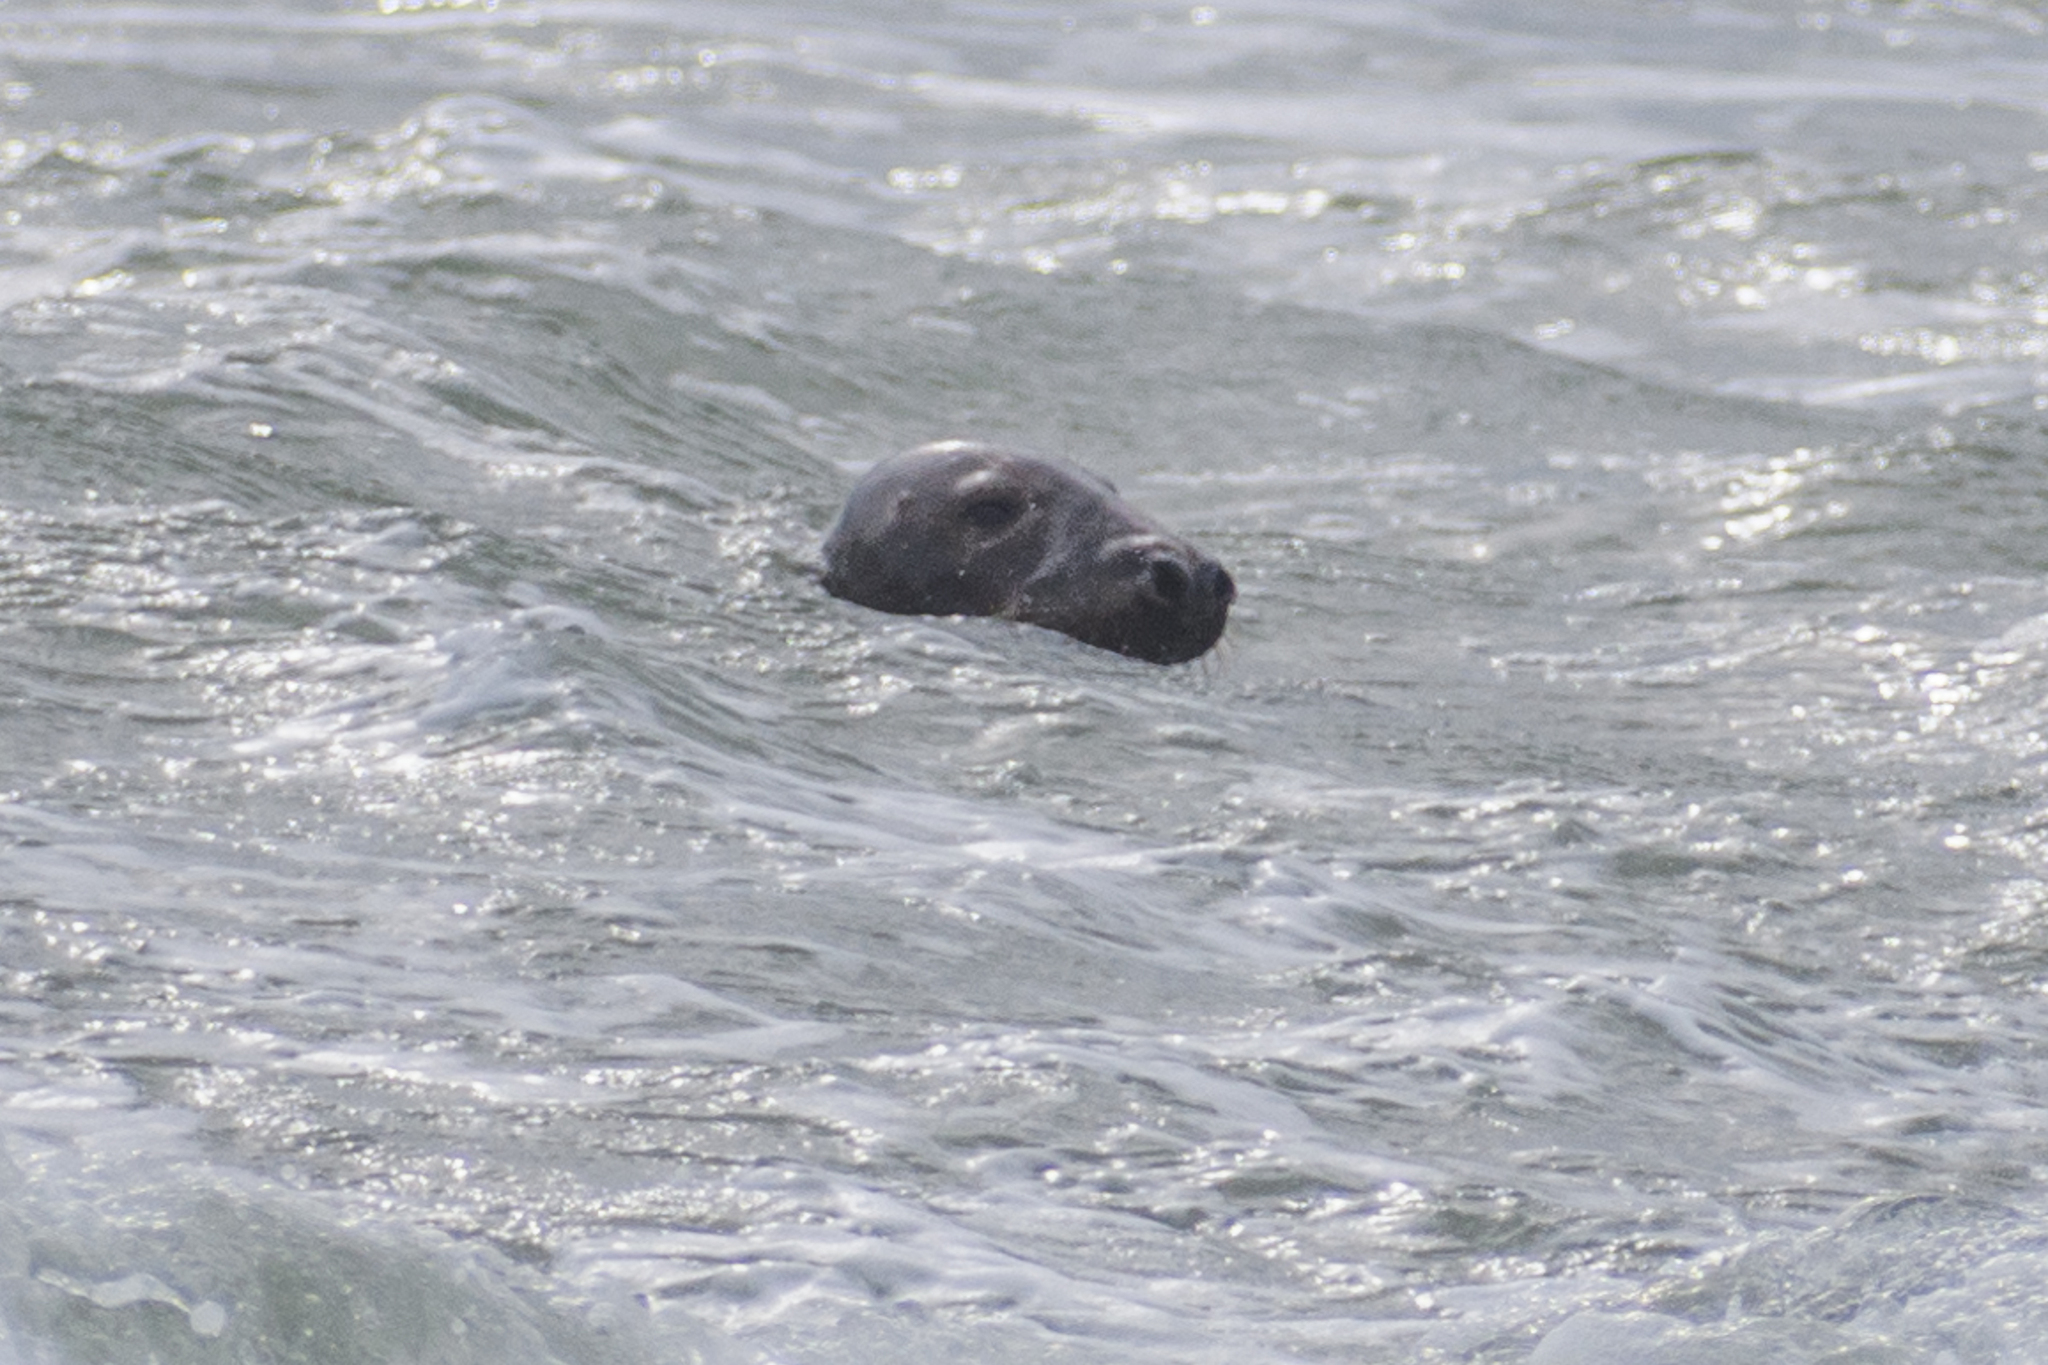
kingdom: Animalia
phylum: Chordata
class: Mammalia
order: Carnivora
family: Phocidae
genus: Halichoerus
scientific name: Halichoerus grypus
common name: Grey seal
